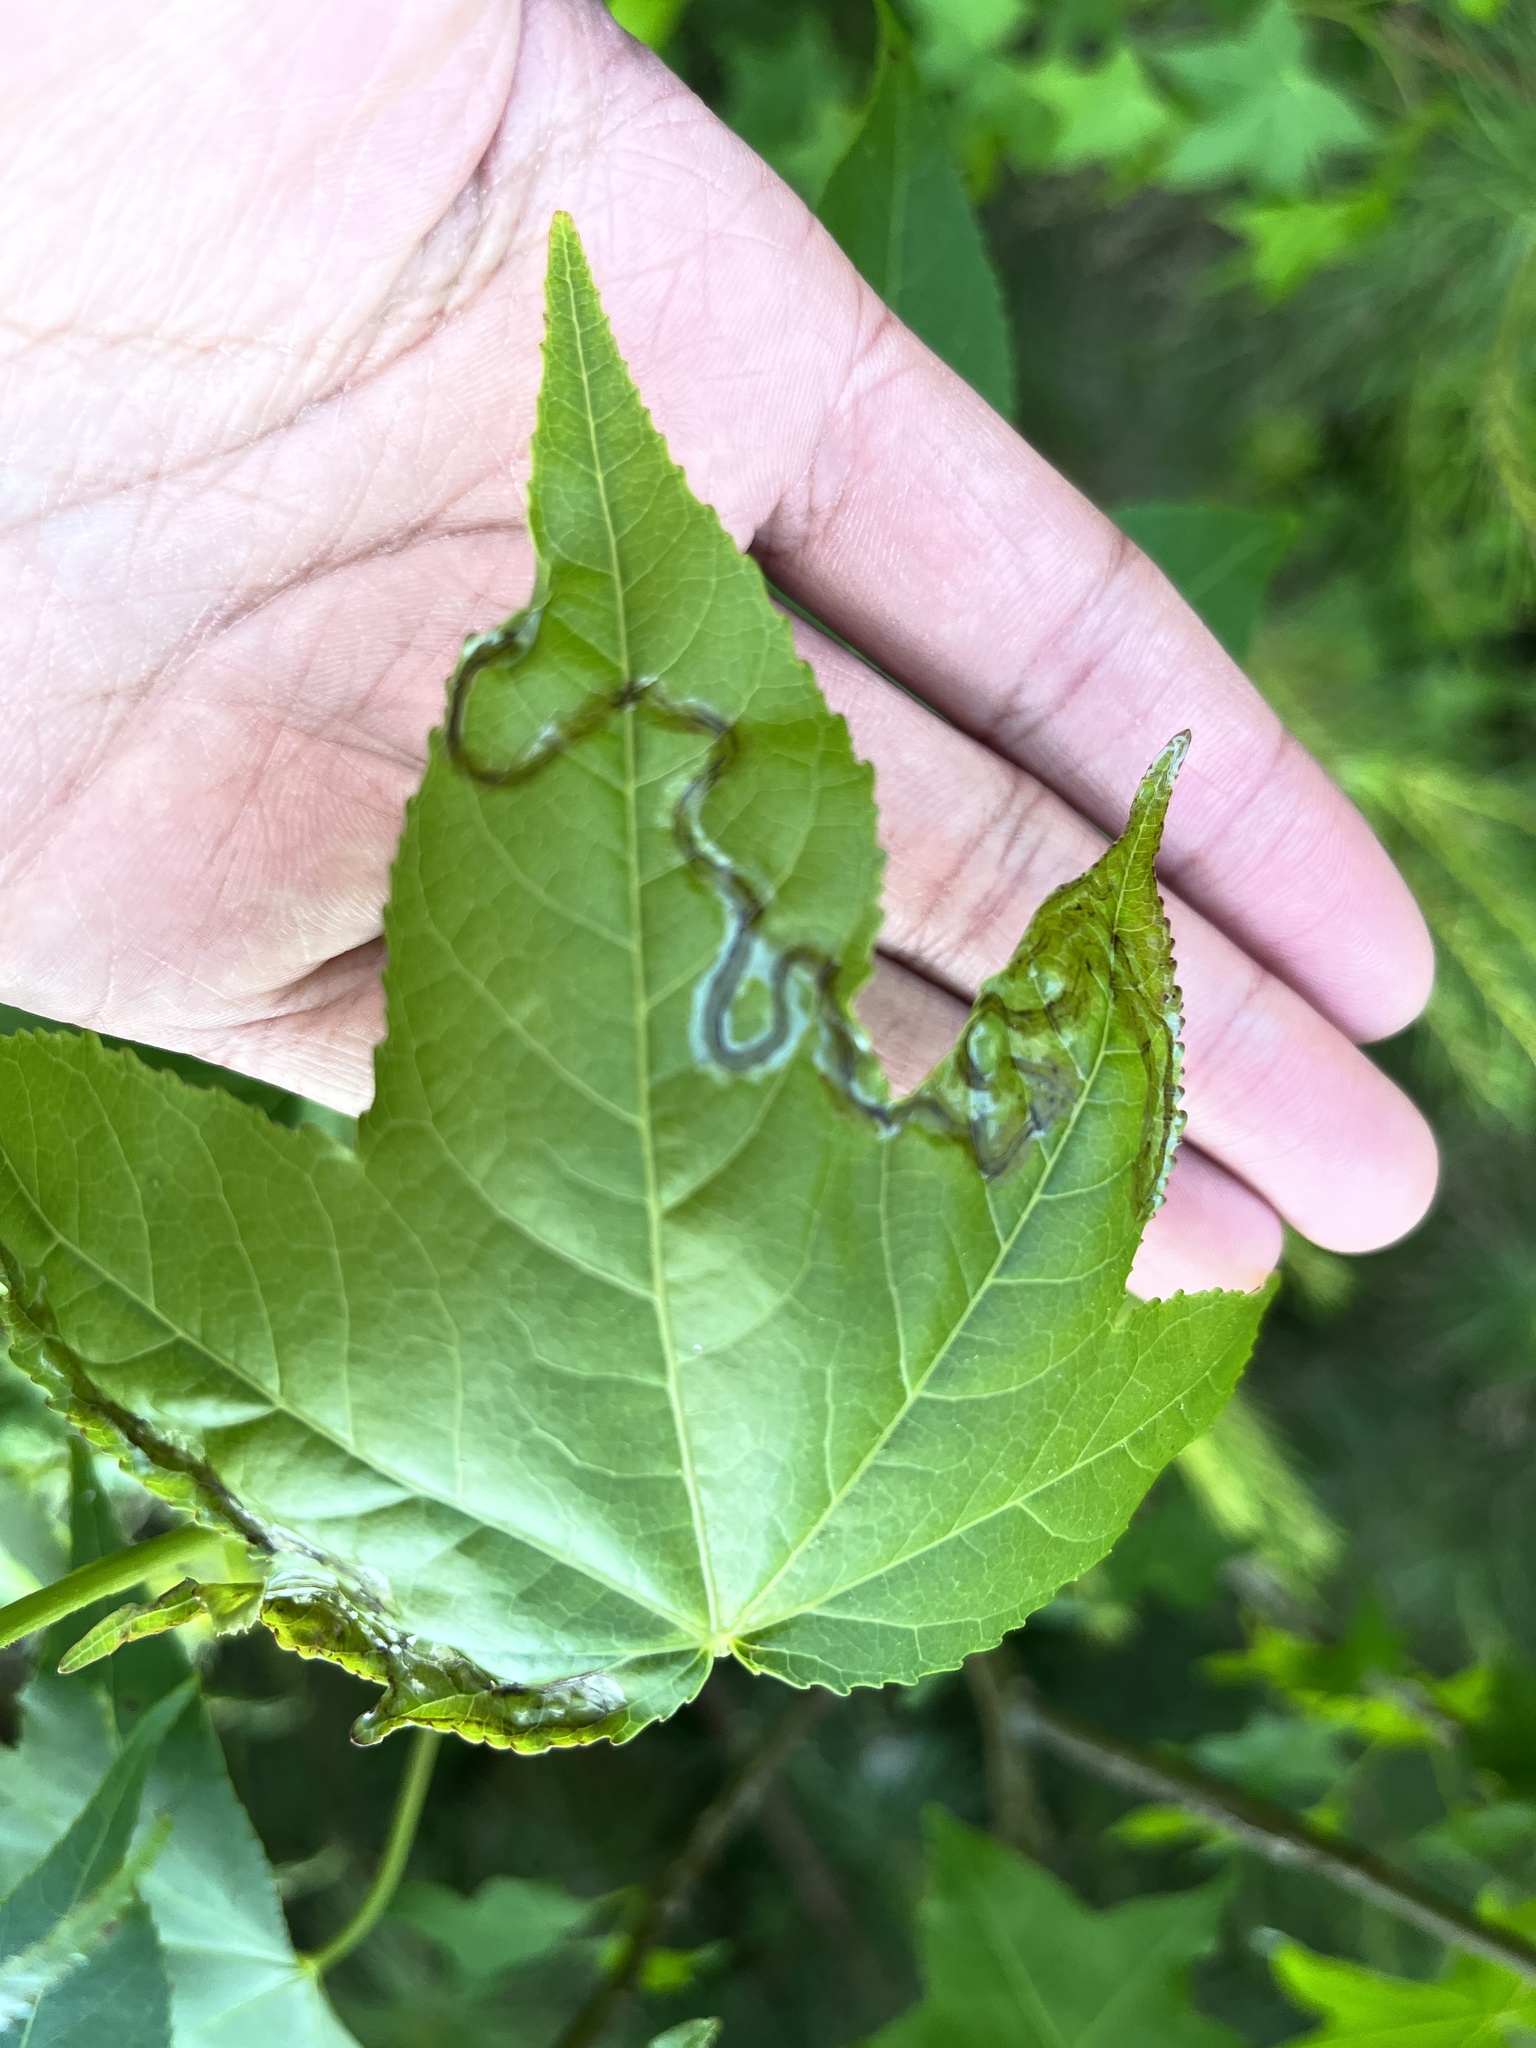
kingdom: Animalia
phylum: Arthropoda
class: Insecta
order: Lepidoptera
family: Gracillariidae
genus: Phyllocnistis
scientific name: Phyllocnistis liquidambarisella
